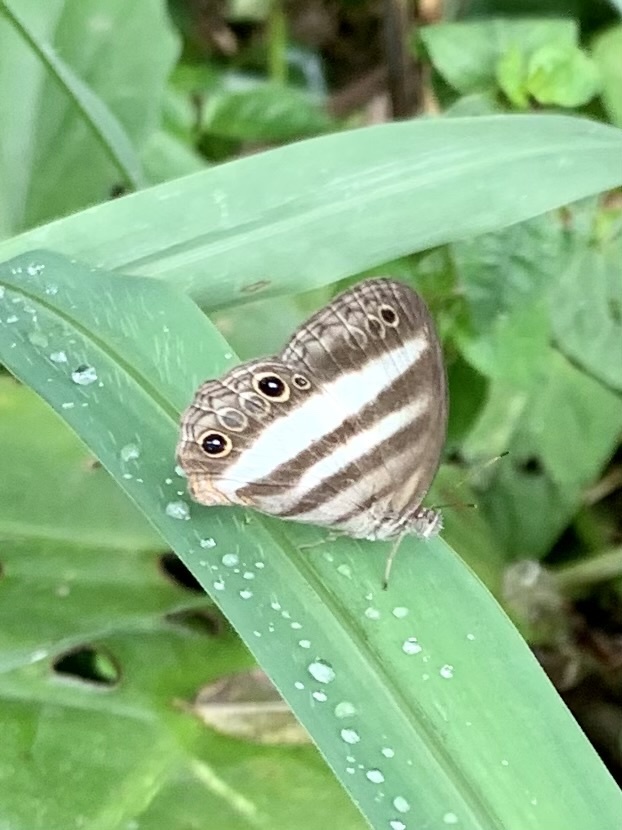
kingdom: Animalia
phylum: Arthropoda
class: Insecta
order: Lepidoptera
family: Nymphalidae
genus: Pareuptychia
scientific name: Pareuptychia hesione
